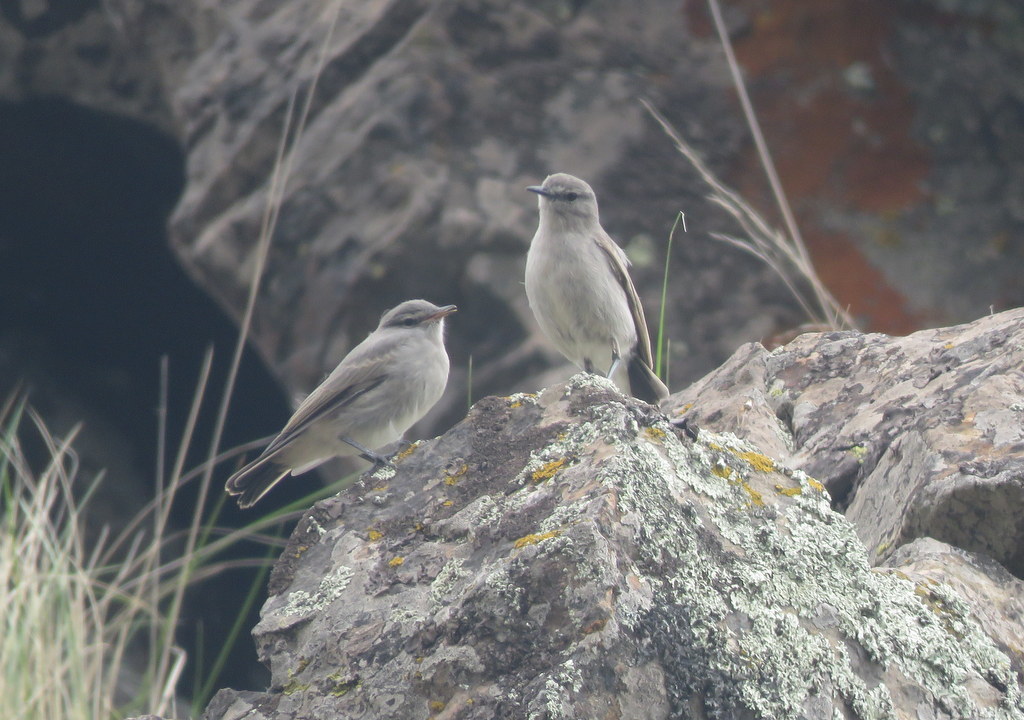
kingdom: Animalia
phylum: Chordata
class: Aves
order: Passeriformes
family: Tyrannidae
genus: Muscisaxicola
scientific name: Muscisaxicola cinereus
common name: Cinereous ground tyrant
